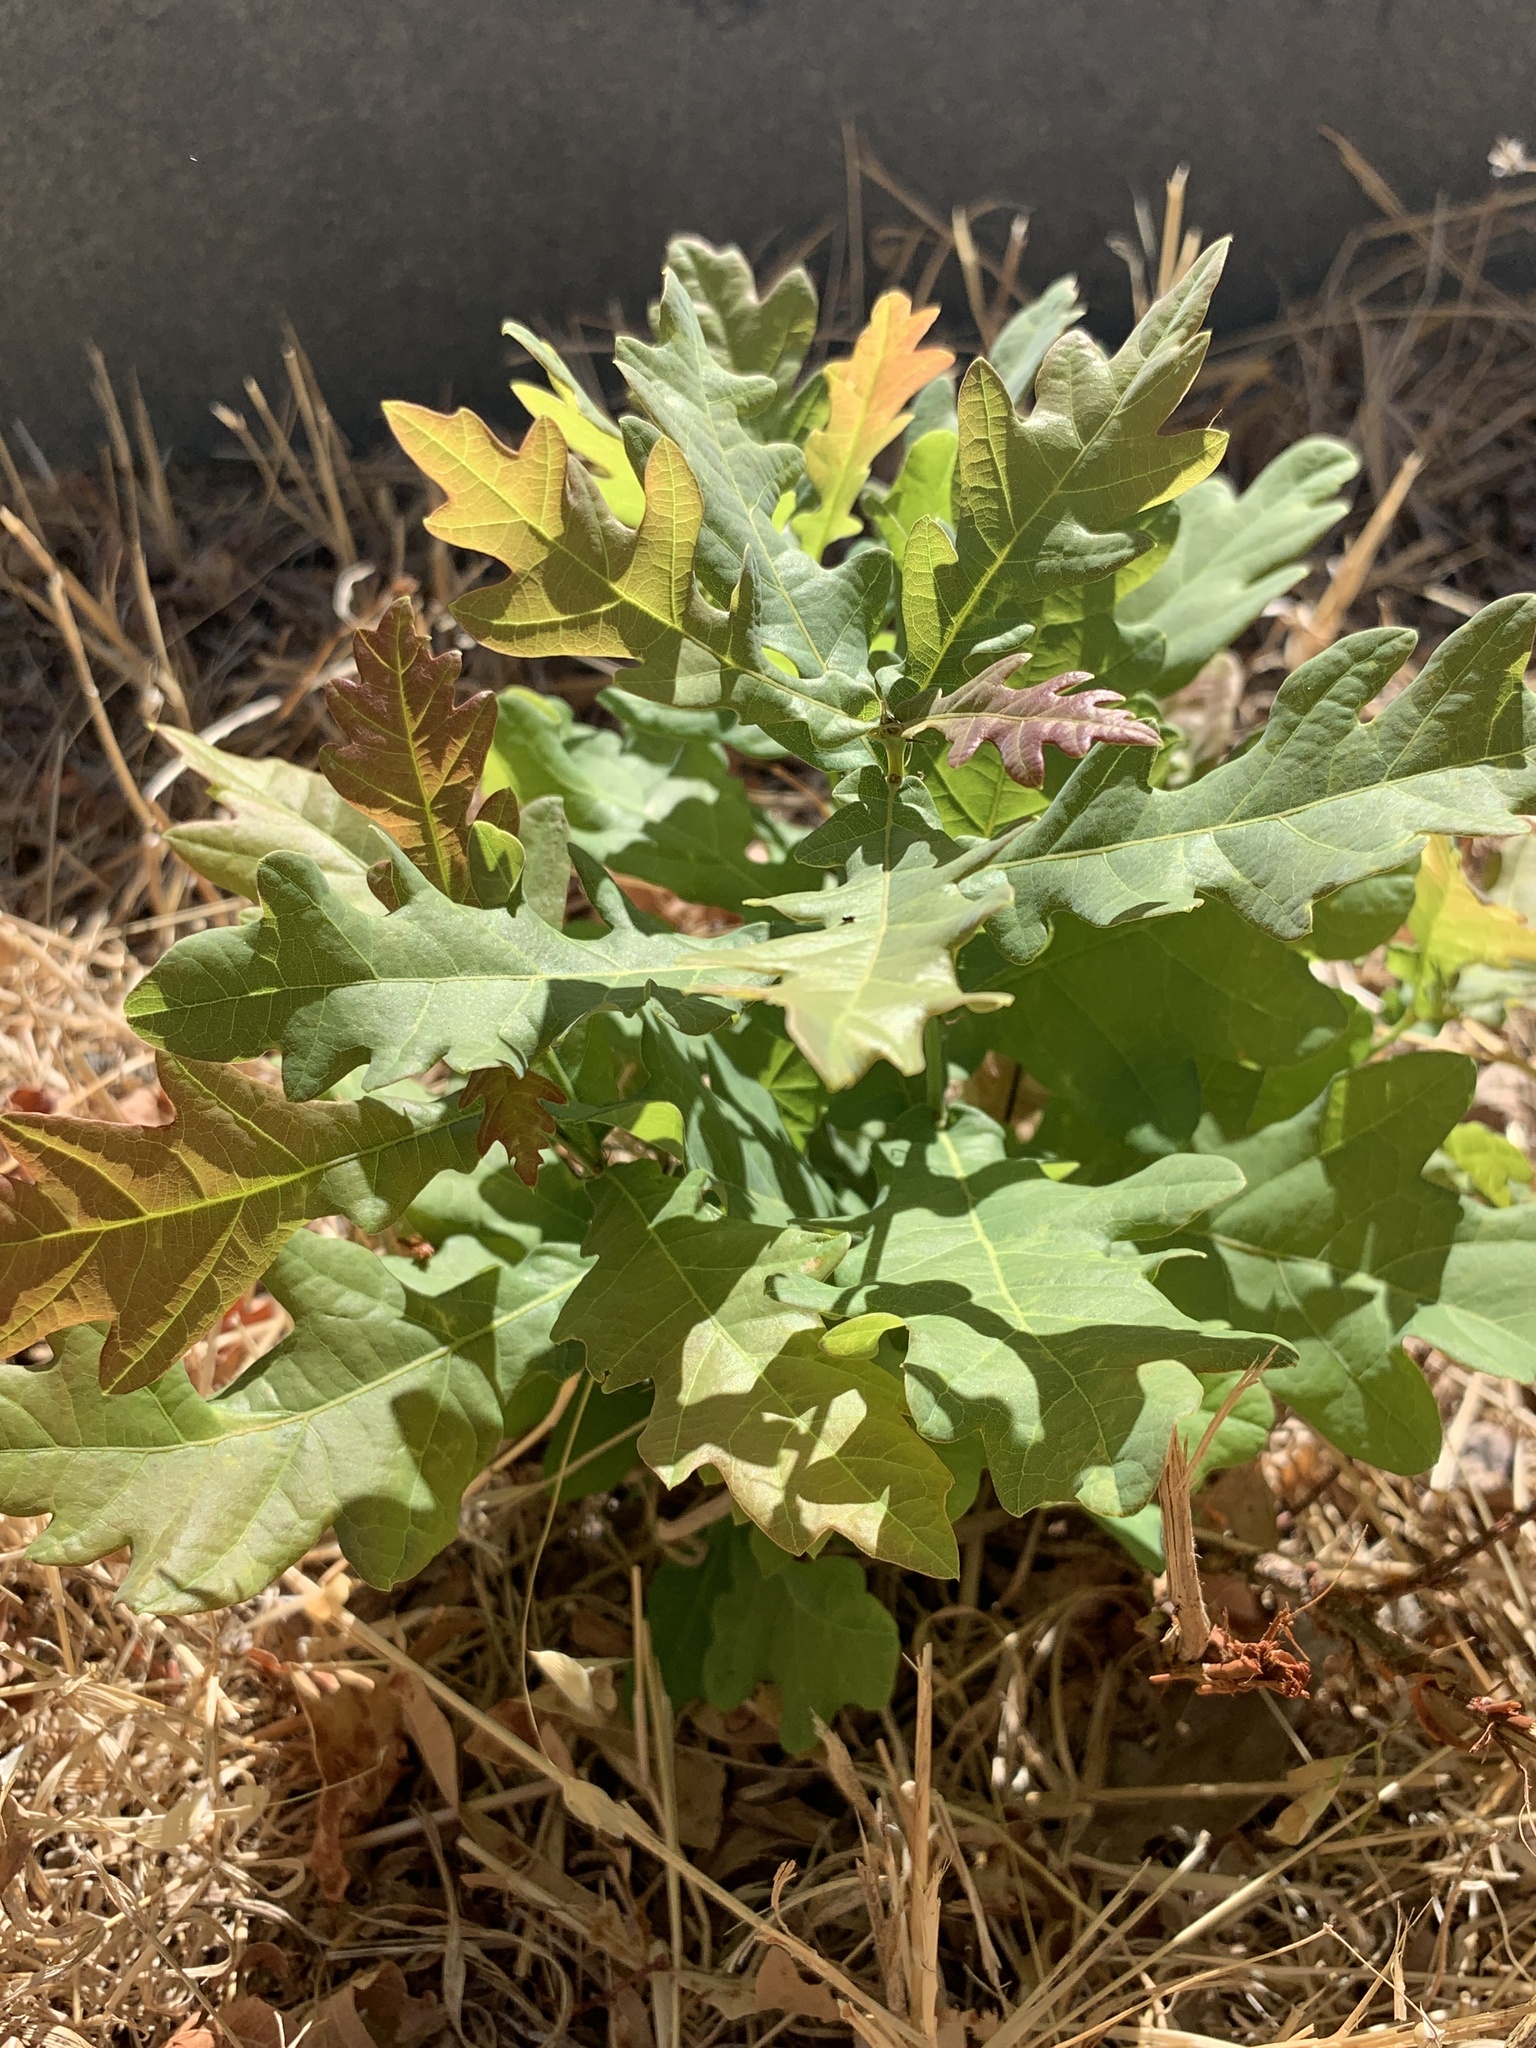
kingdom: Plantae
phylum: Tracheophyta
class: Magnoliopsida
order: Fagales
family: Fagaceae
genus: Quercus
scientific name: Quercus robur
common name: Pedunculate oak
